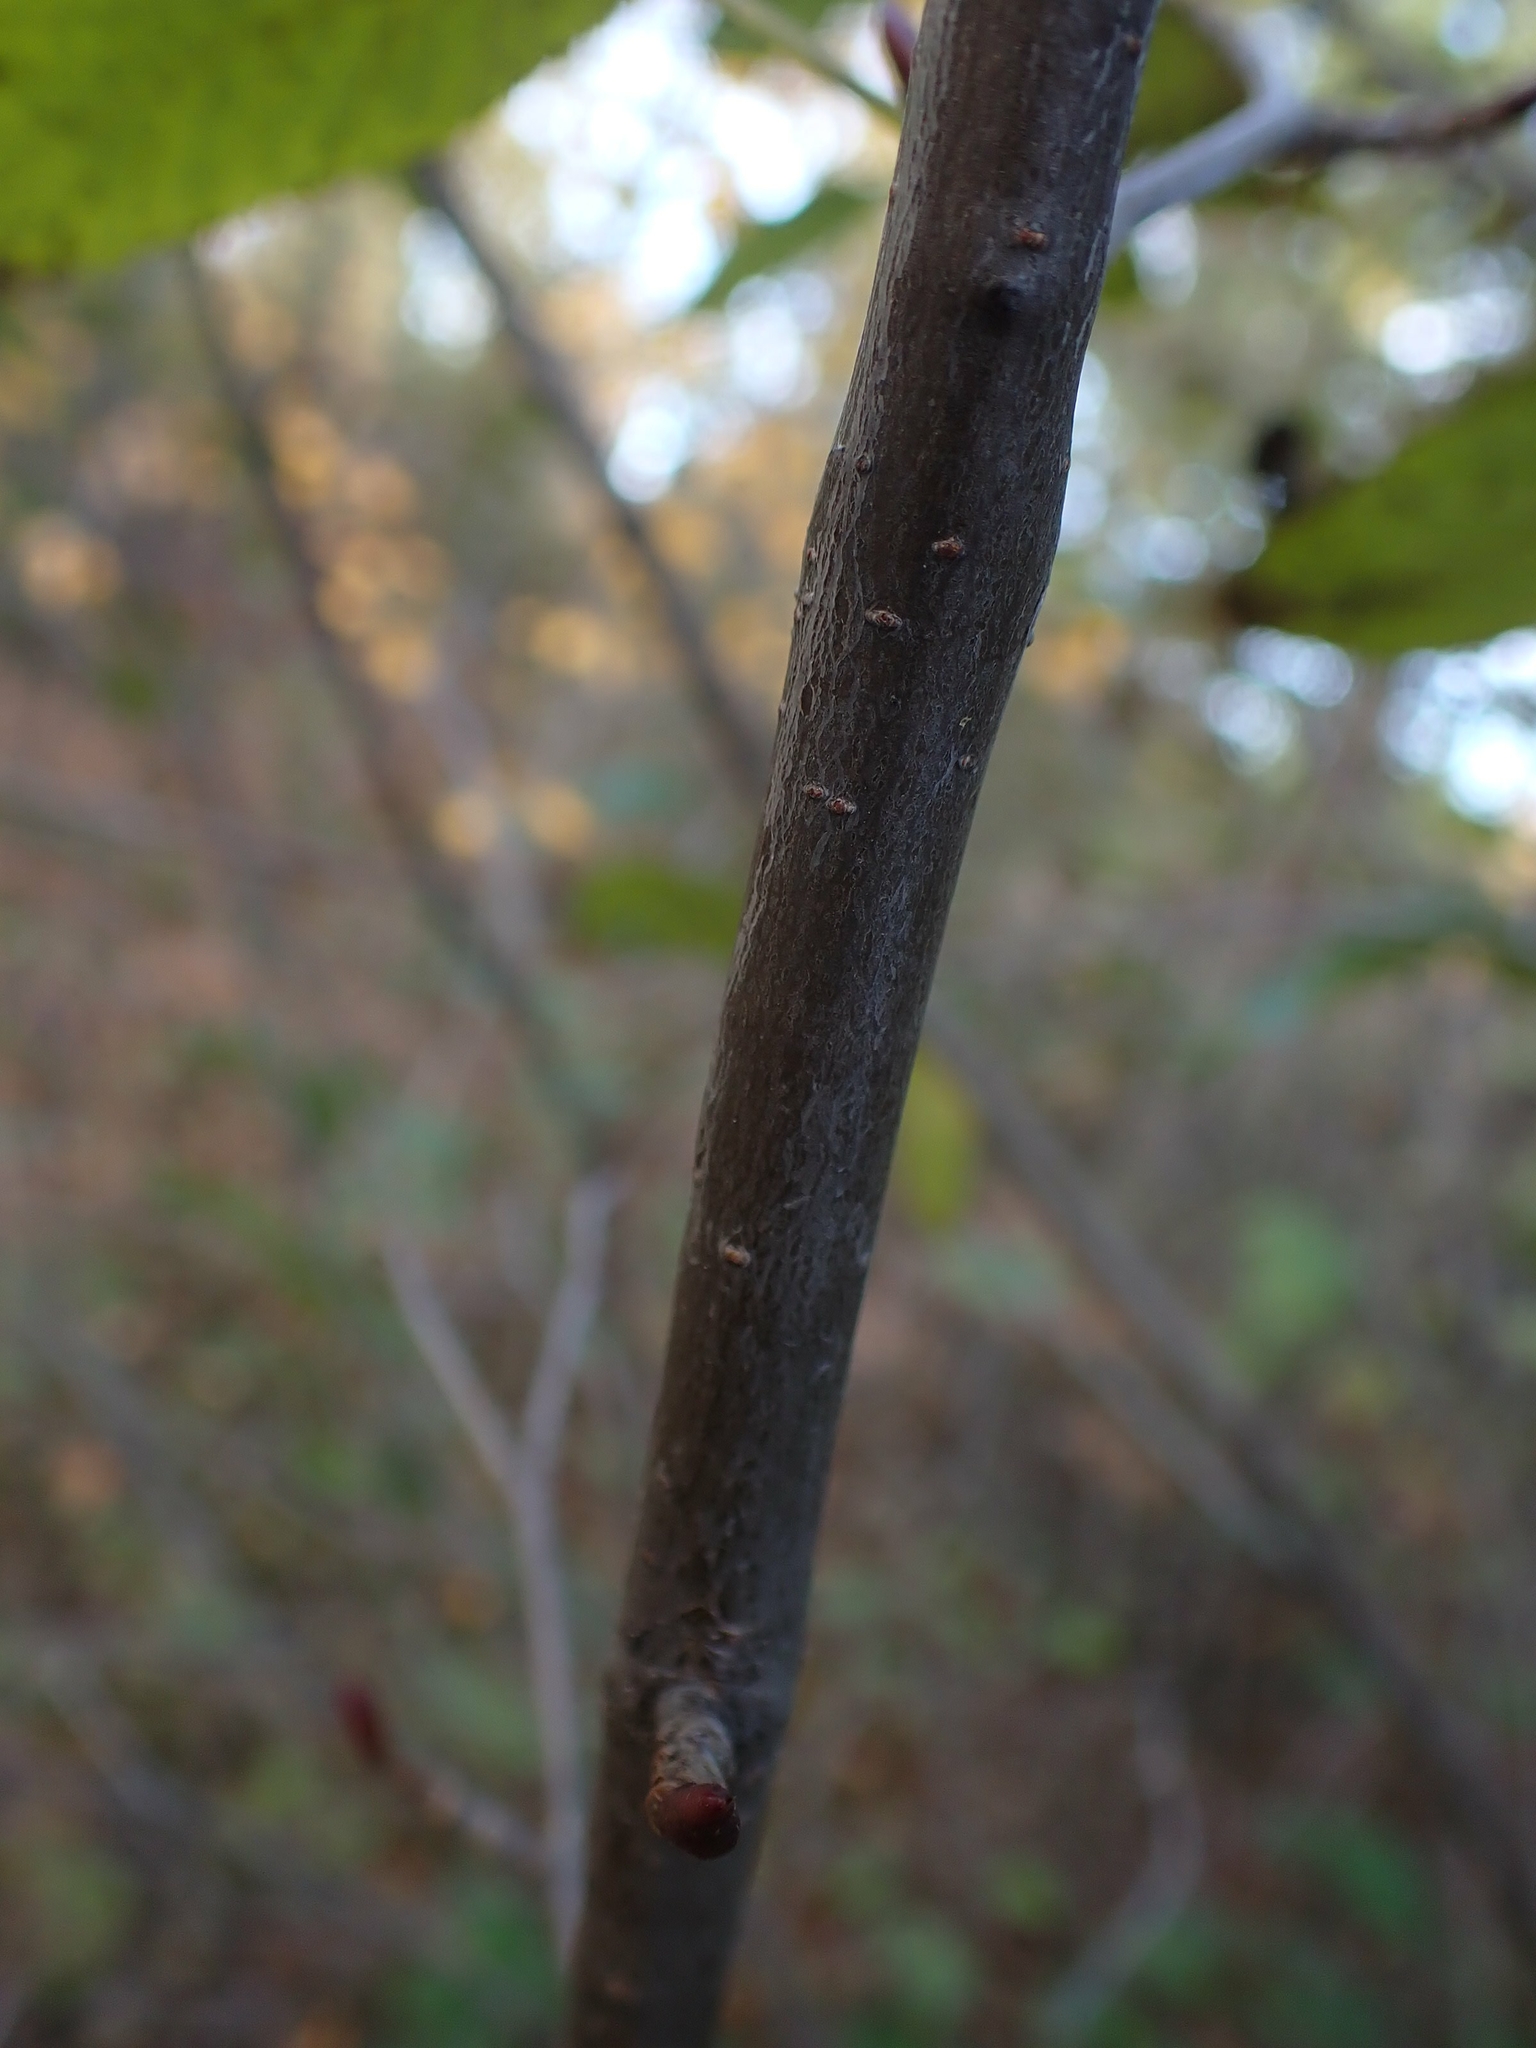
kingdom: Plantae
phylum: Tracheophyta
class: Magnoliopsida
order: Fagales
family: Betulaceae
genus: Alnus
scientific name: Alnus alnobetula
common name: Green alder
